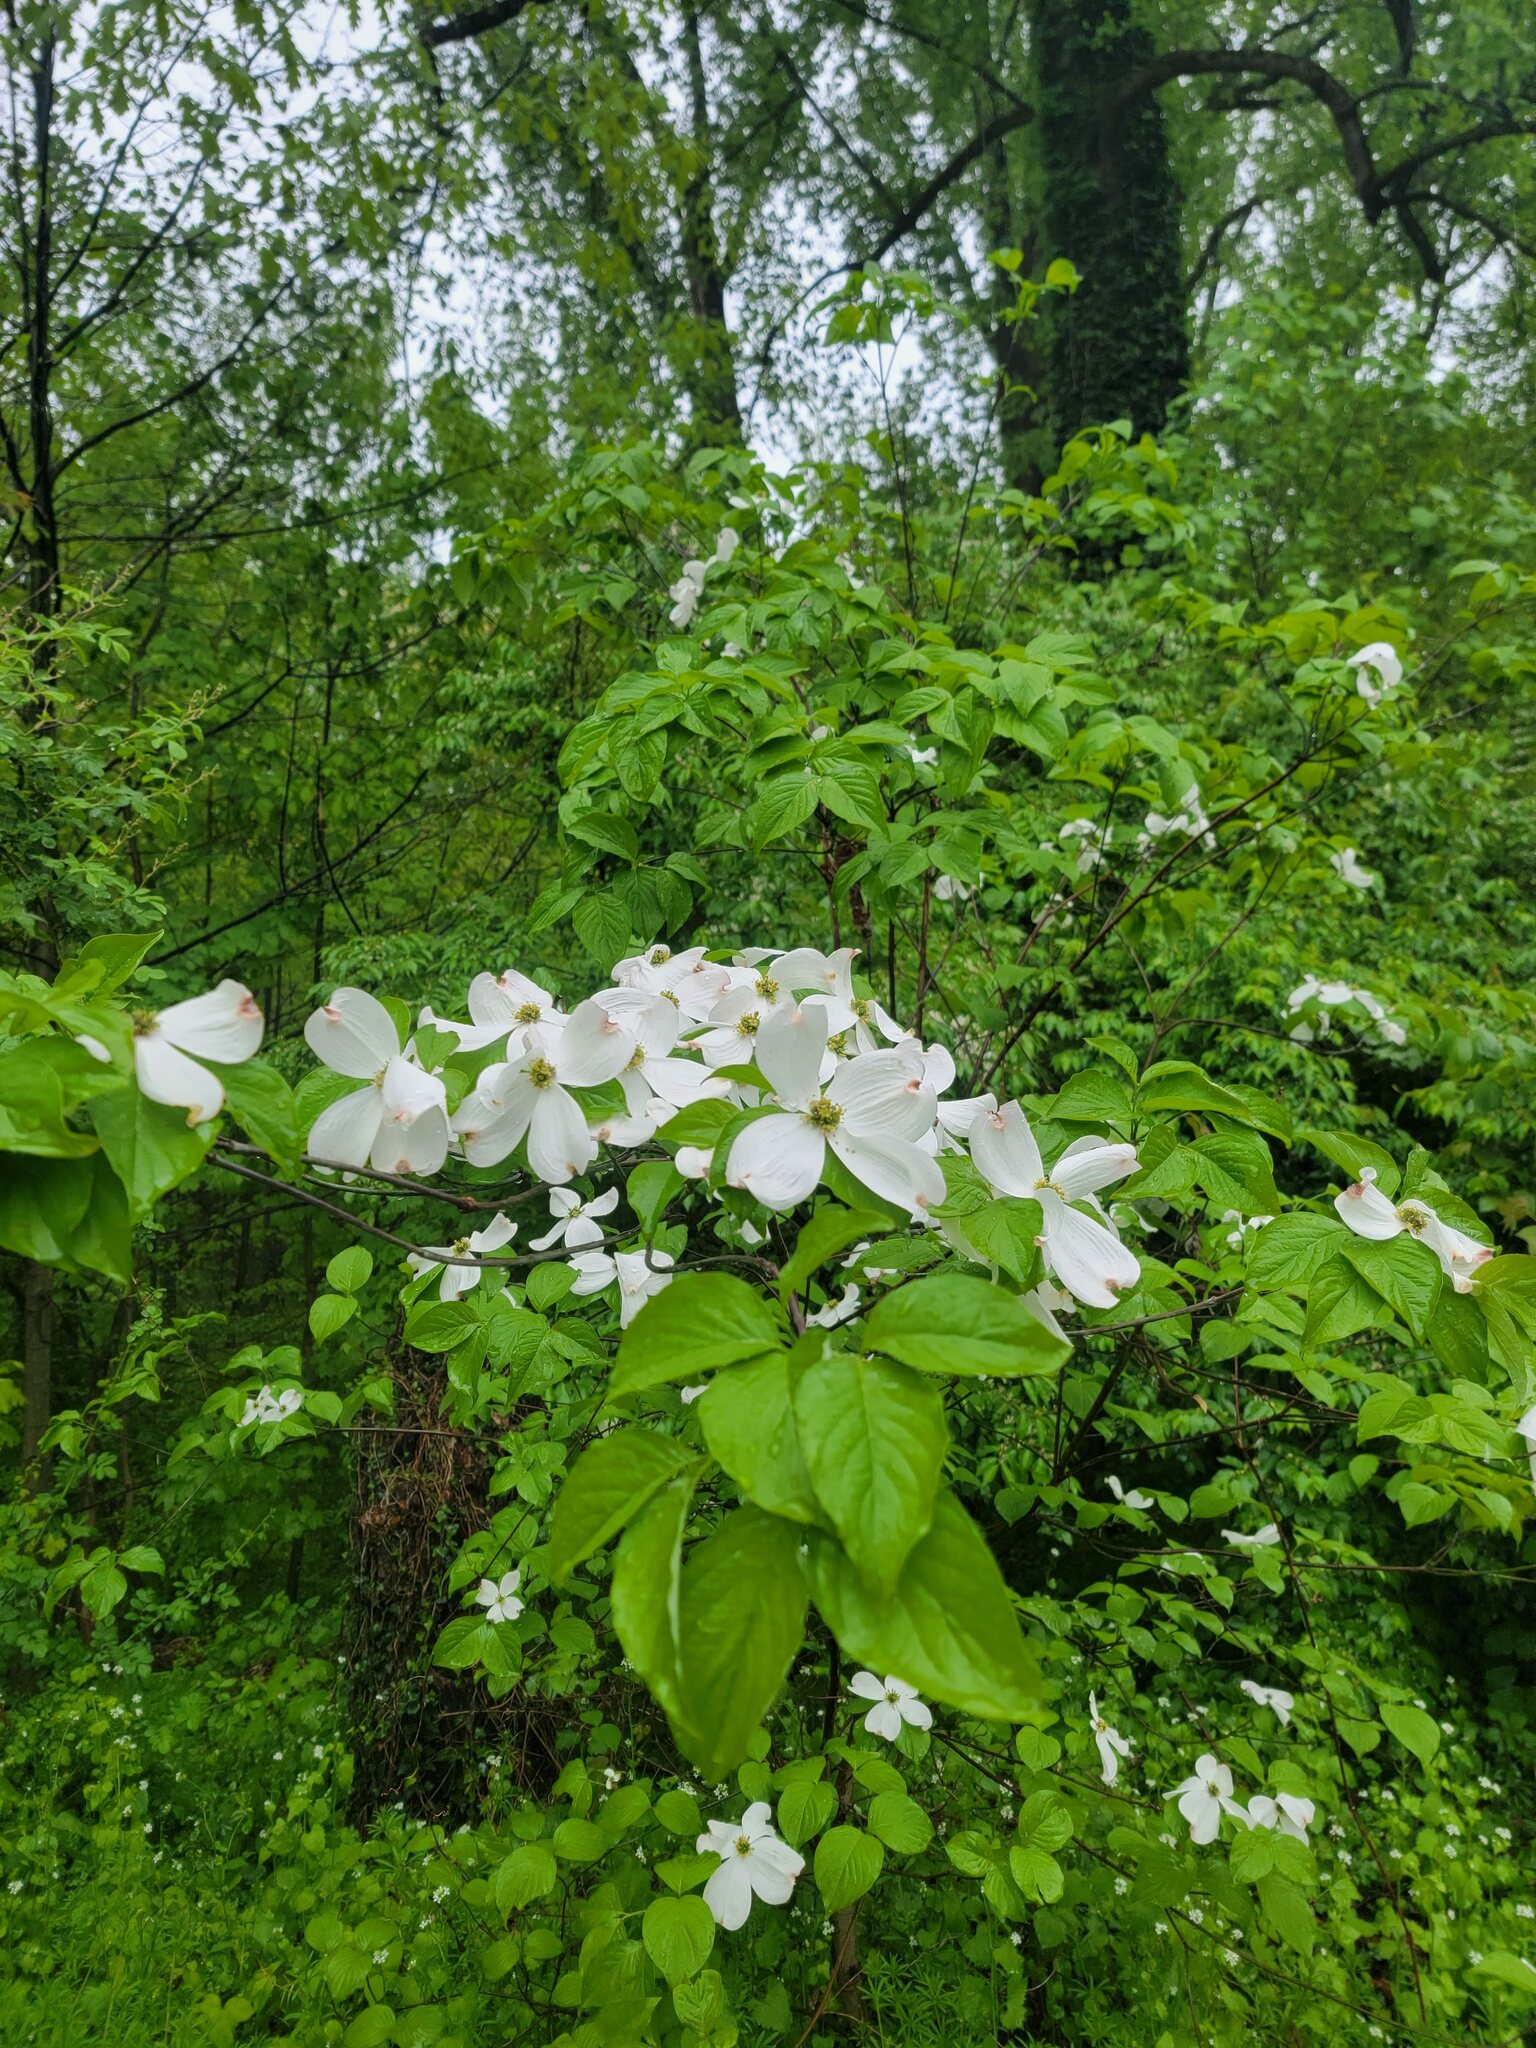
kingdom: Plantae
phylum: Tracheophyta
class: Magnoliopsida
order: Cornales
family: Cornaceae
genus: Cornus
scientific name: Cornus florida
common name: Flowering dogwood
